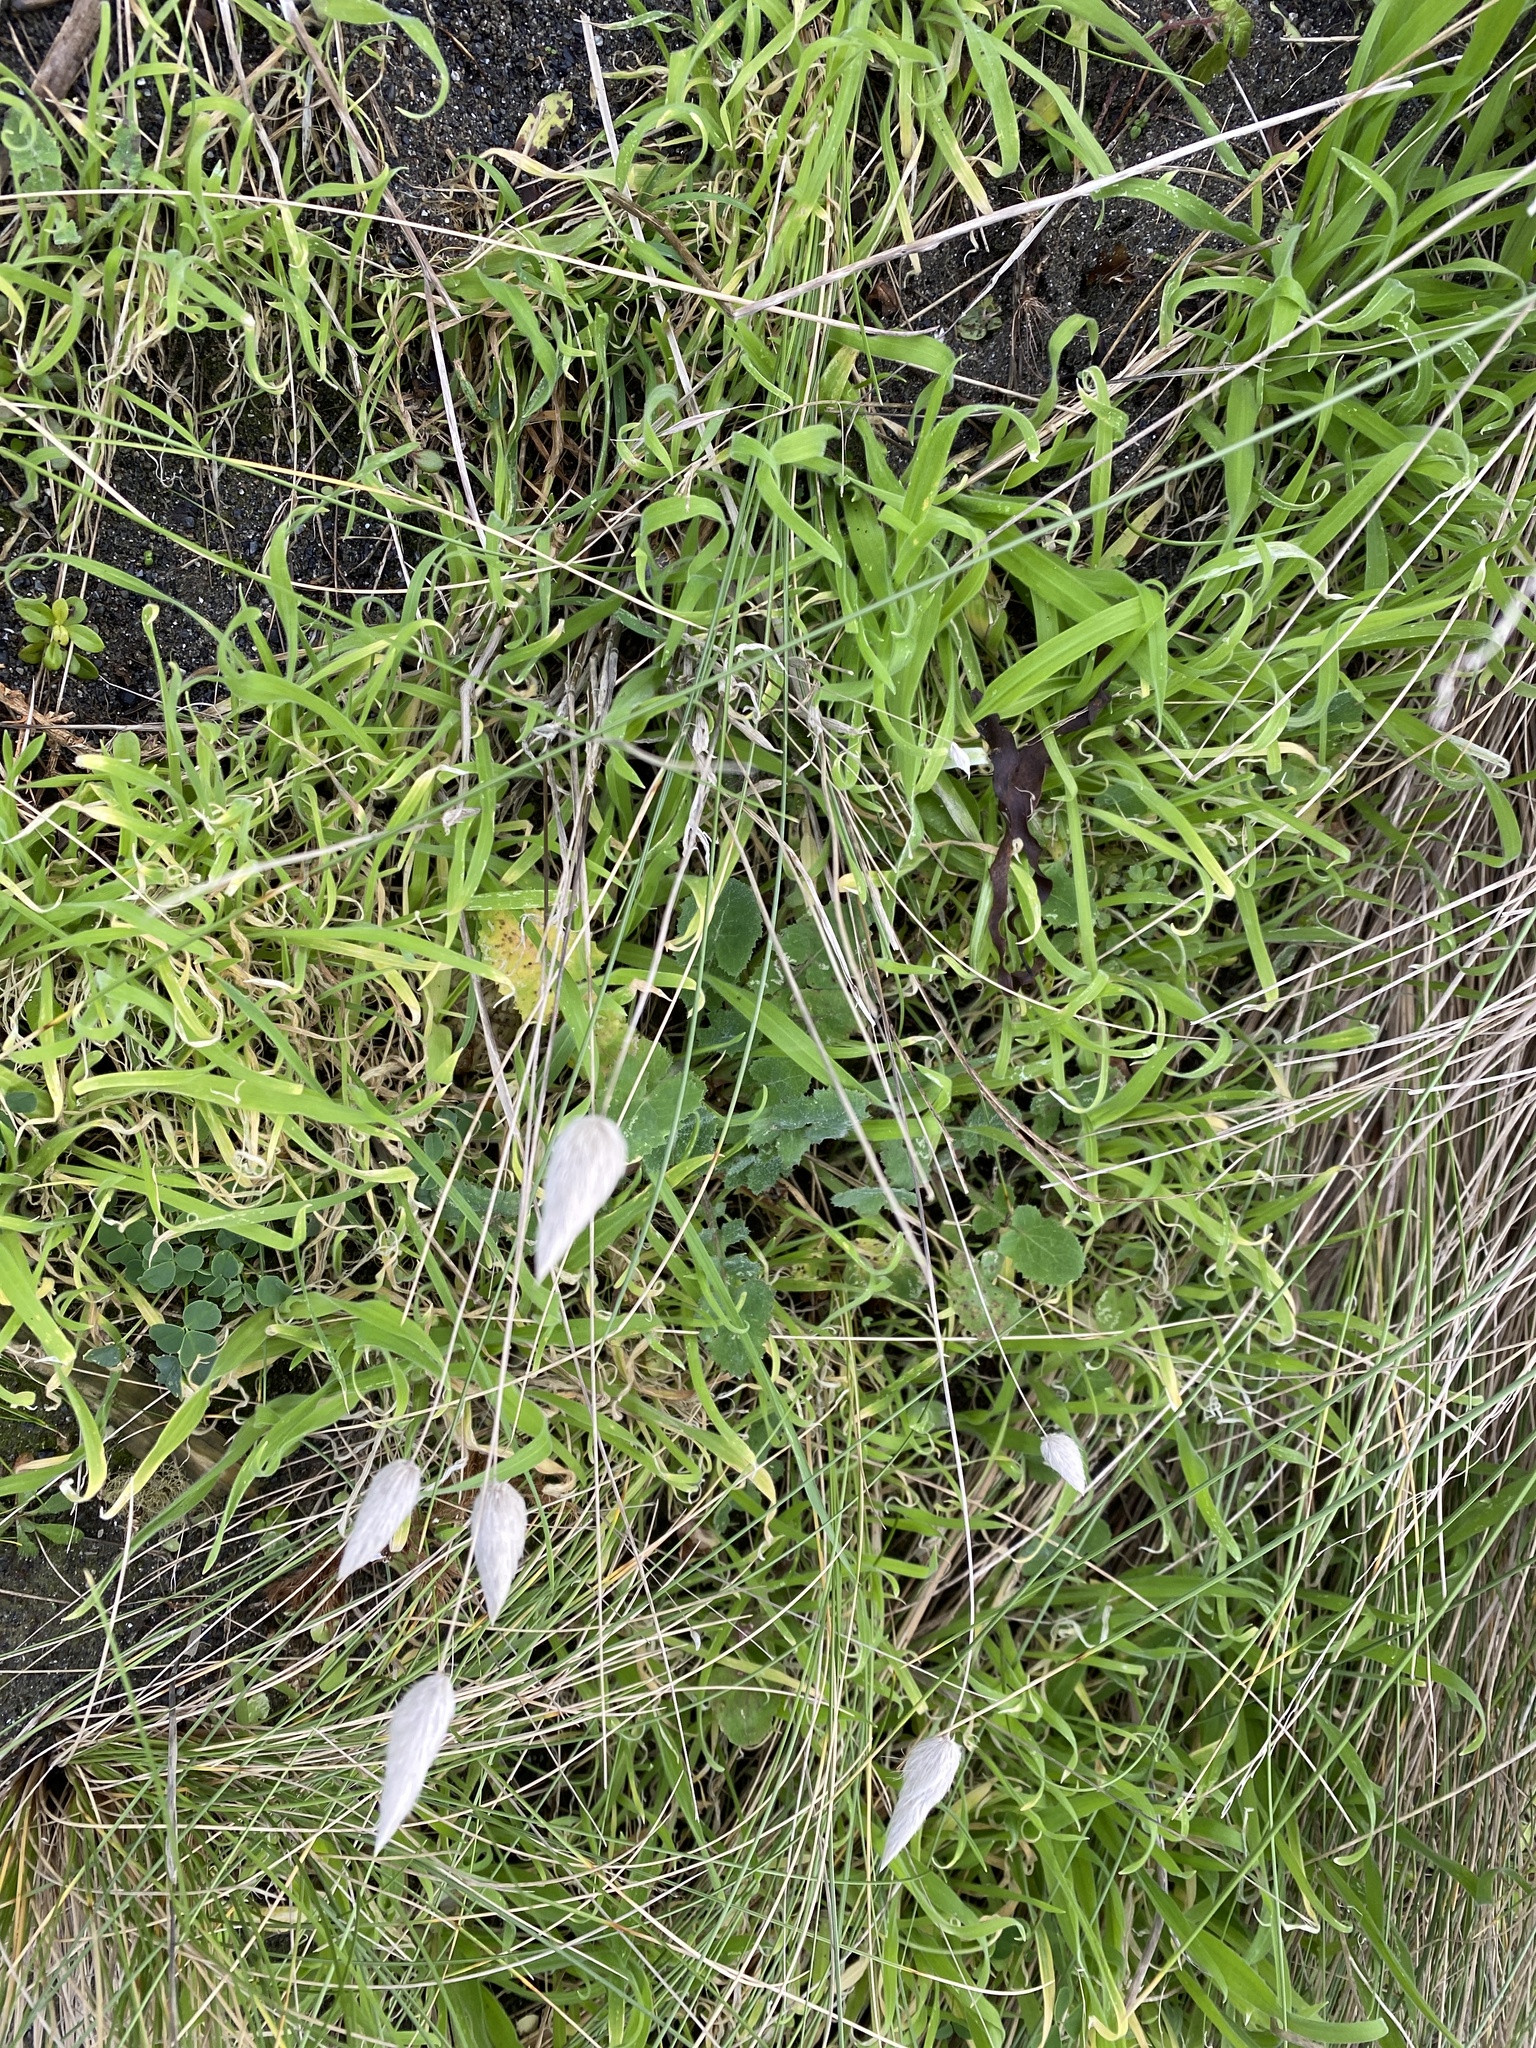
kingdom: Plantae
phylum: Tracheophyta
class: Liliopsida
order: Poales
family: Poaceae
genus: Lagurus
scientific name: Lagurus ovatus
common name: Hare's-tail
